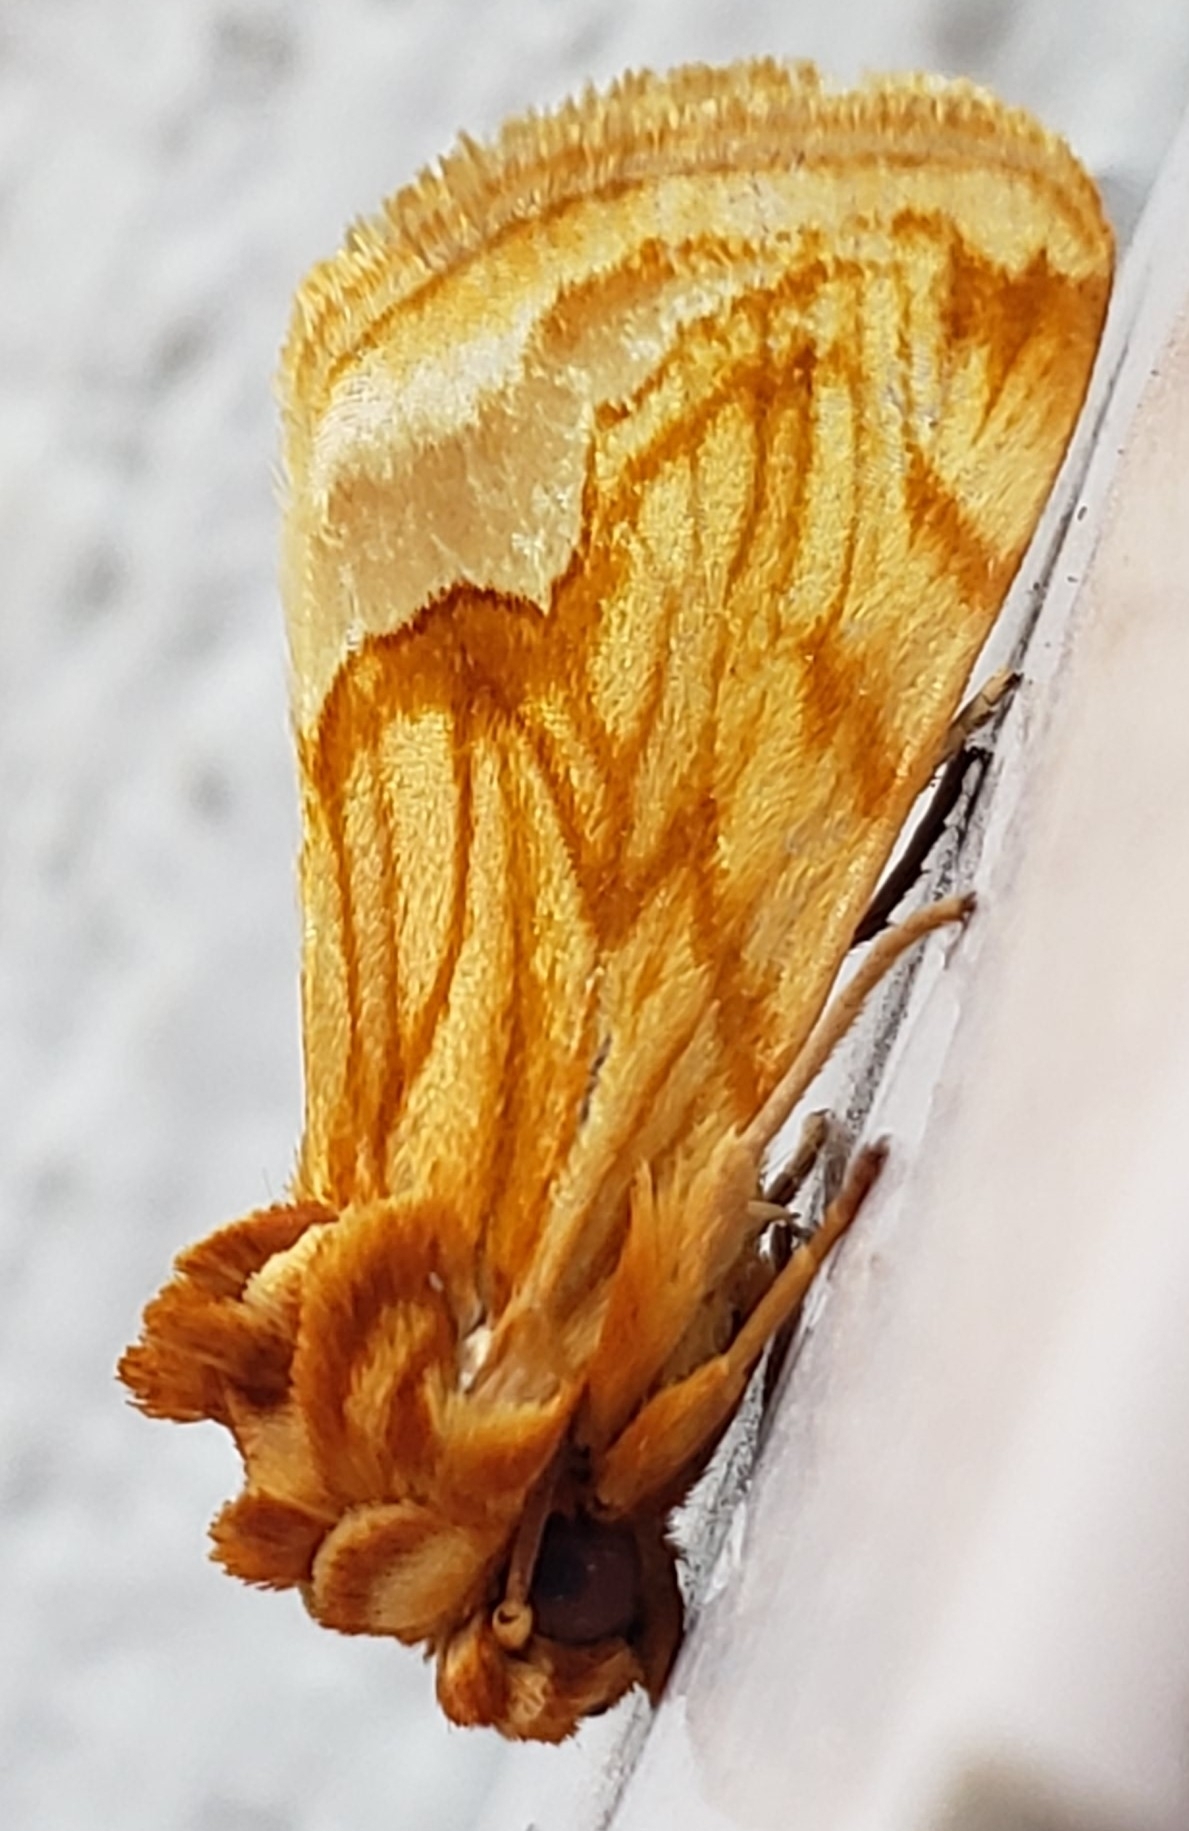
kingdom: Animalia
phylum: Arthropoda
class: Insecta
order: Lepidoptera
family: Noctuidae
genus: Cirrhophanus
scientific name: Cirrhophanus dyari
